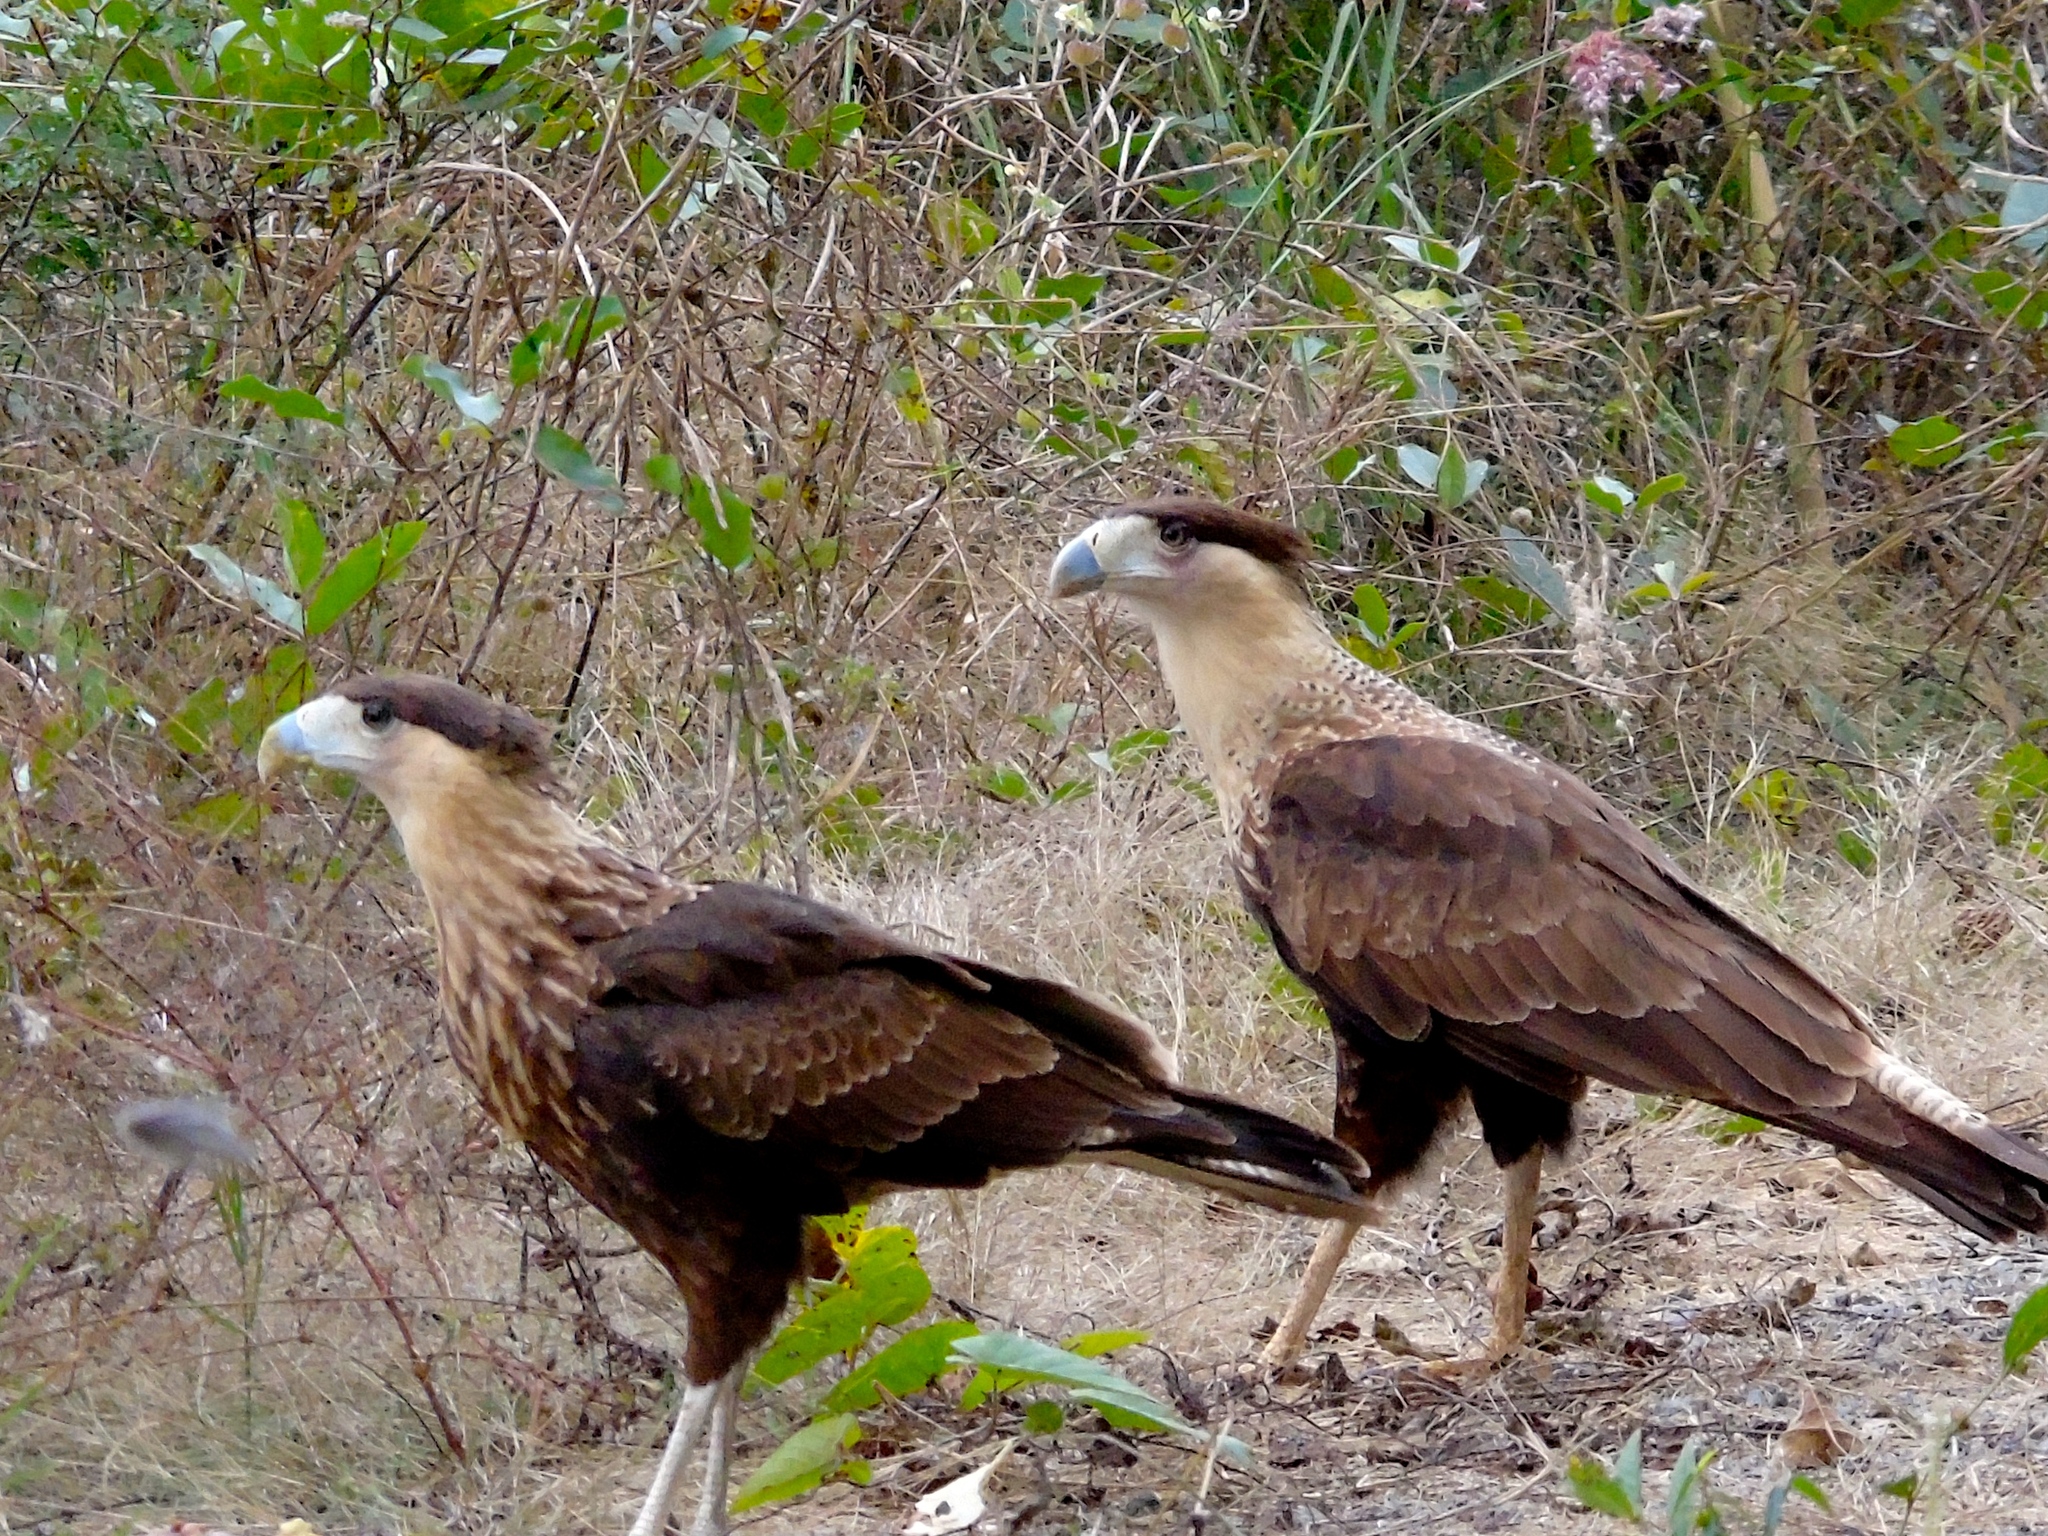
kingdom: Animalia
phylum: Chordata
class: Aves
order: Falconiformes
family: Falconidae
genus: Caracara
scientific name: Caracara plancus
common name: Southern caracara
